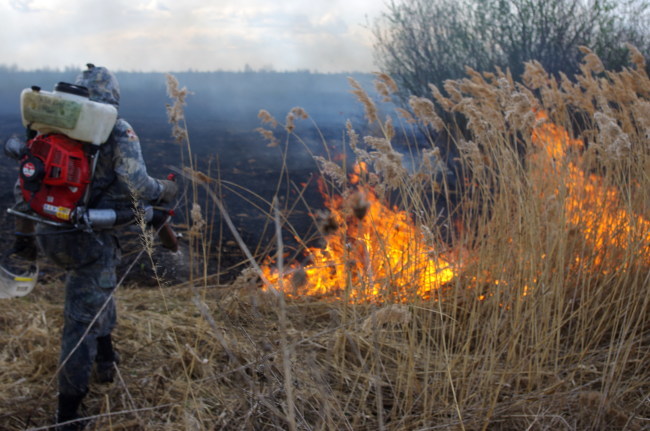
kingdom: Plantae
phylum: Tracheophyta
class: Liliopsida
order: Poales
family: Poaceae
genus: Phragmites
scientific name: Phragmites australis
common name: Common reed
